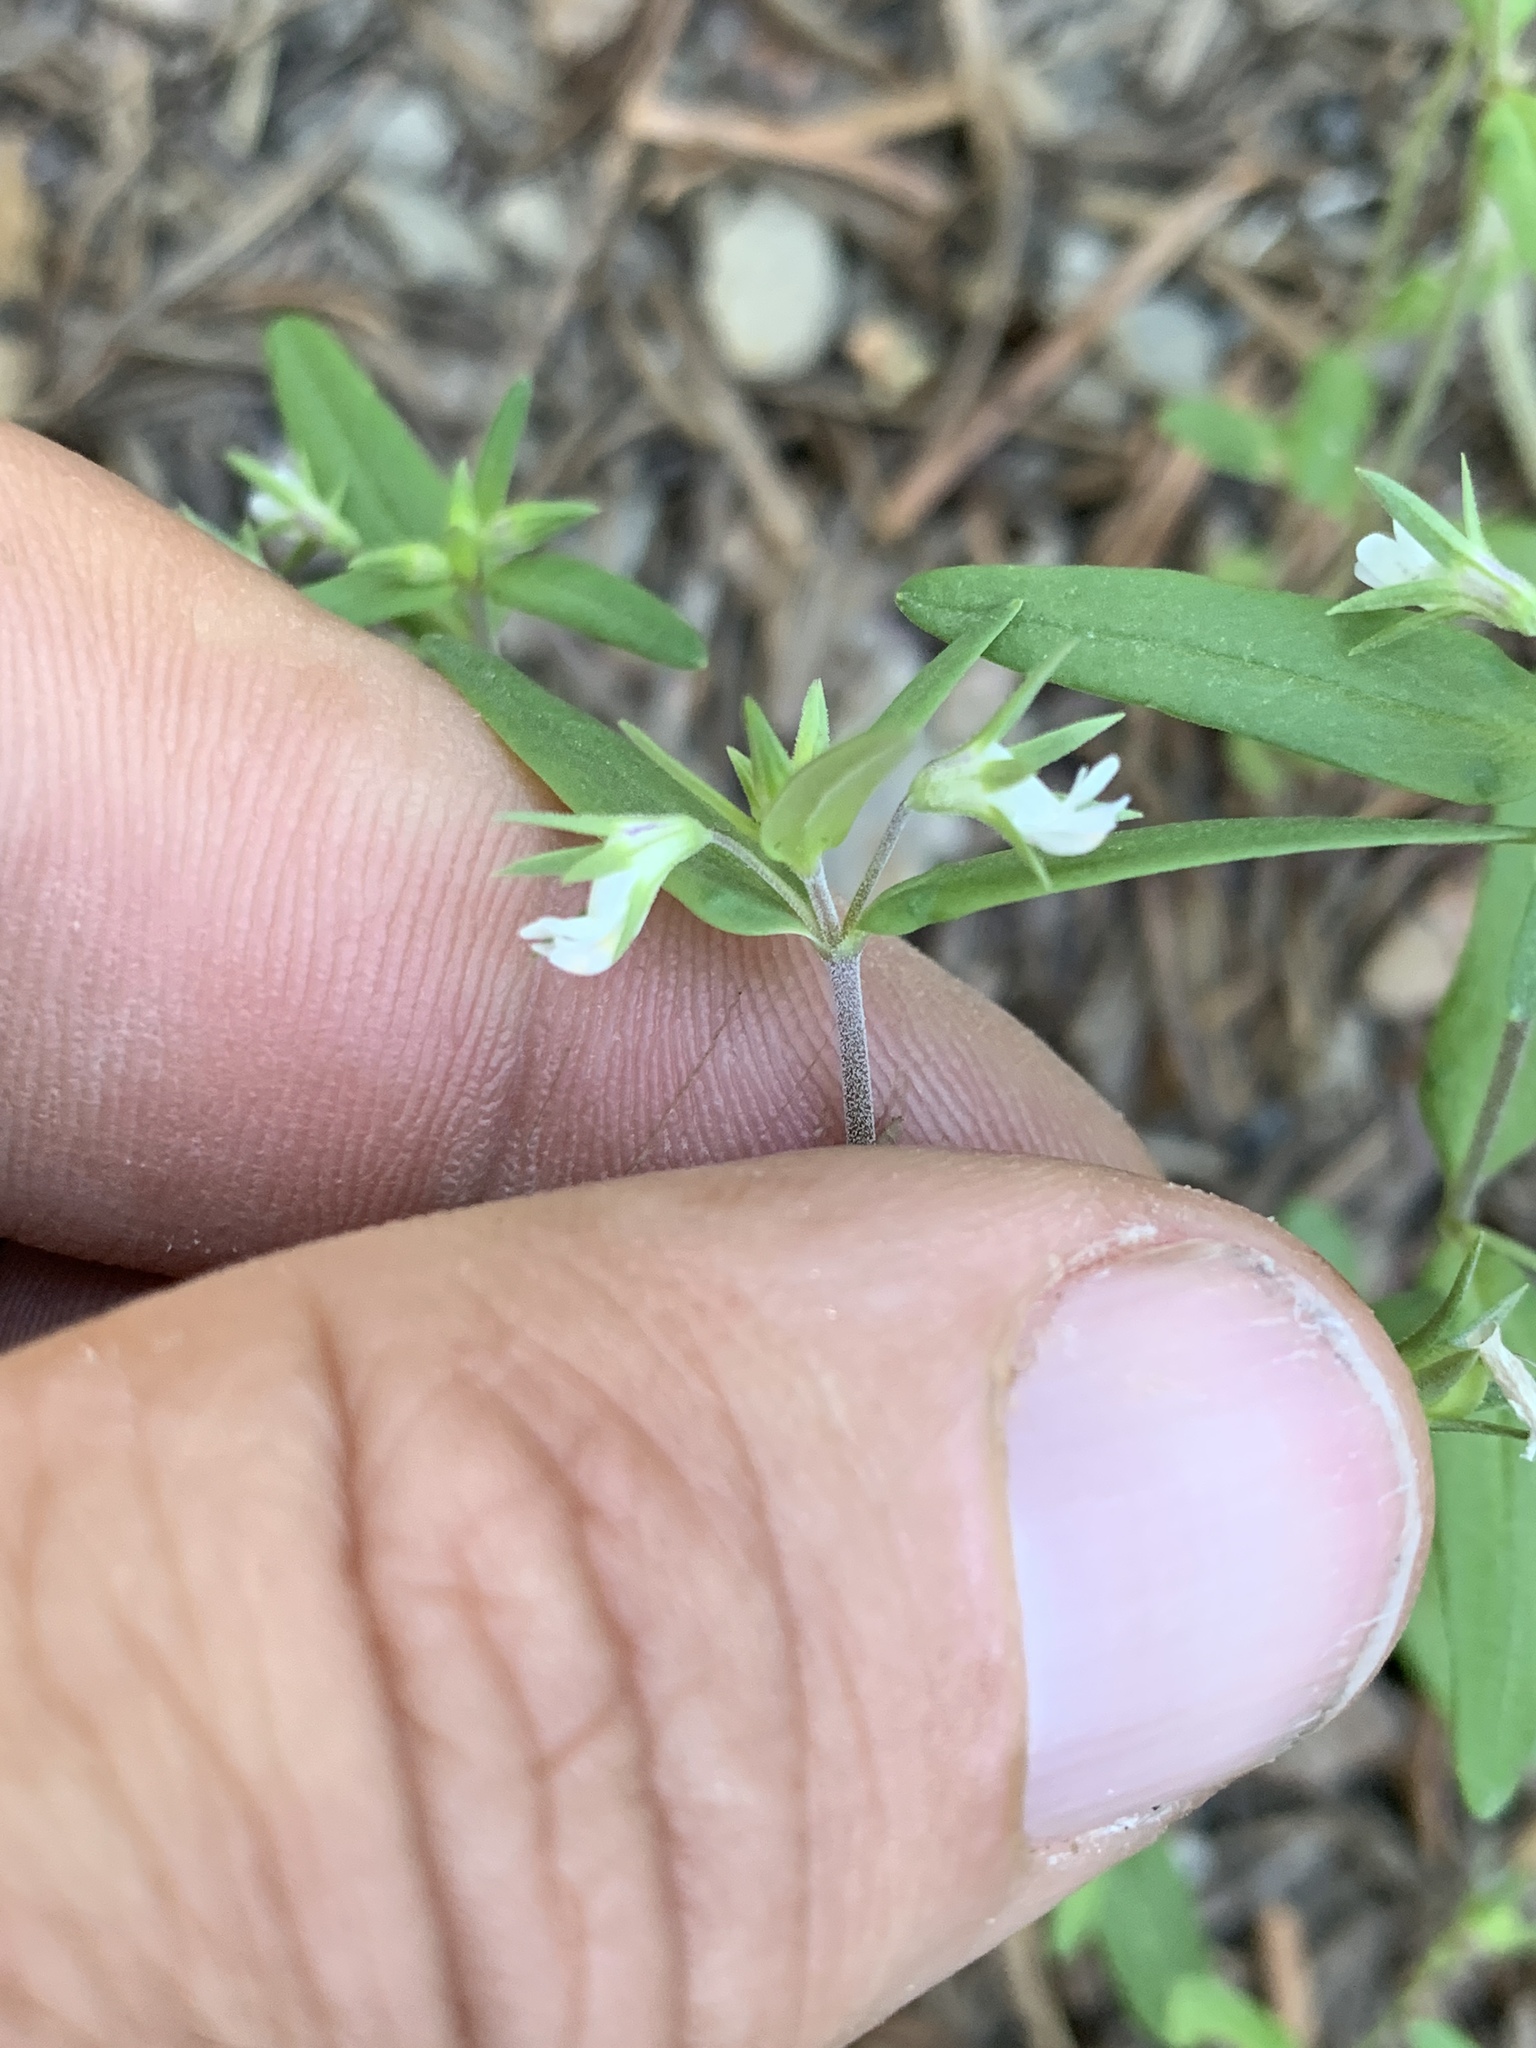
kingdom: Plantae
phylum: Tracheophyta
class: Magnoliopsida
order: Lamiales
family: Plantaginaceae
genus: Collinsia
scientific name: Collinsia parviflora
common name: Blue-lips
